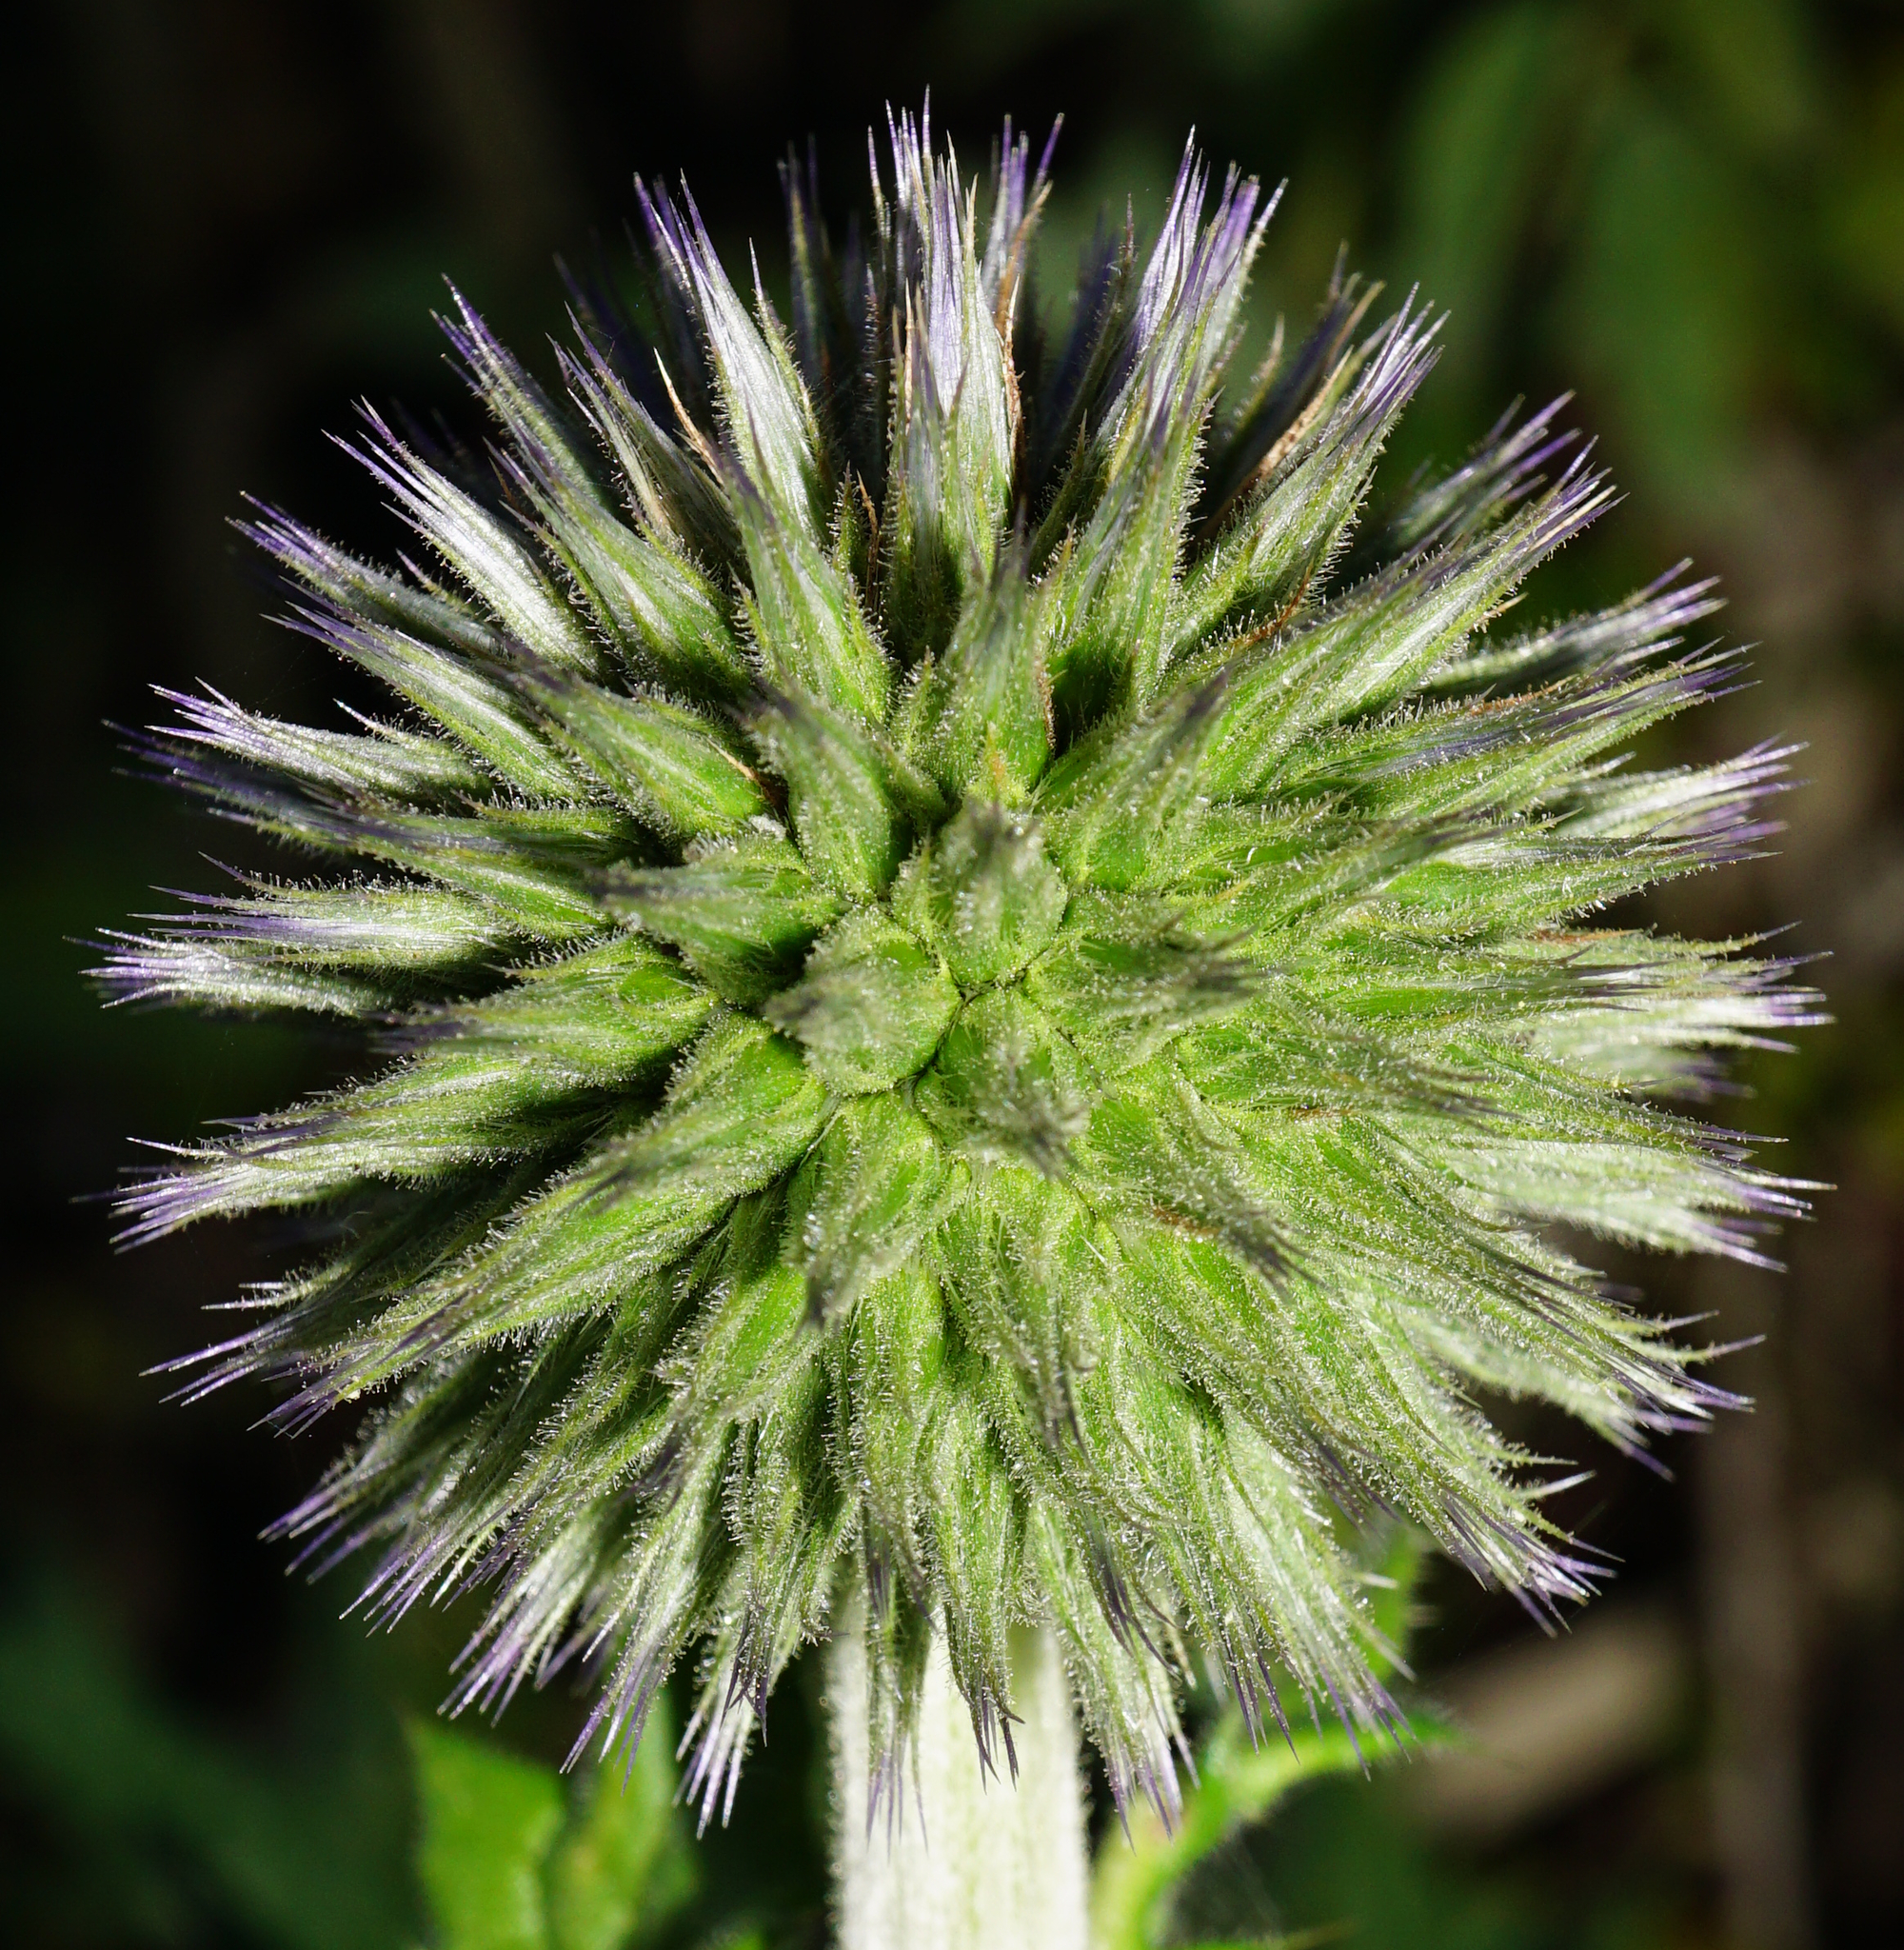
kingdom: Plantae
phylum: Tracheophyta
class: Magnoliopsida
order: Asterales
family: Asteraceae
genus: Echinops
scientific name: Echinops sphaerocephalus
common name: Glandular globe-thistle
